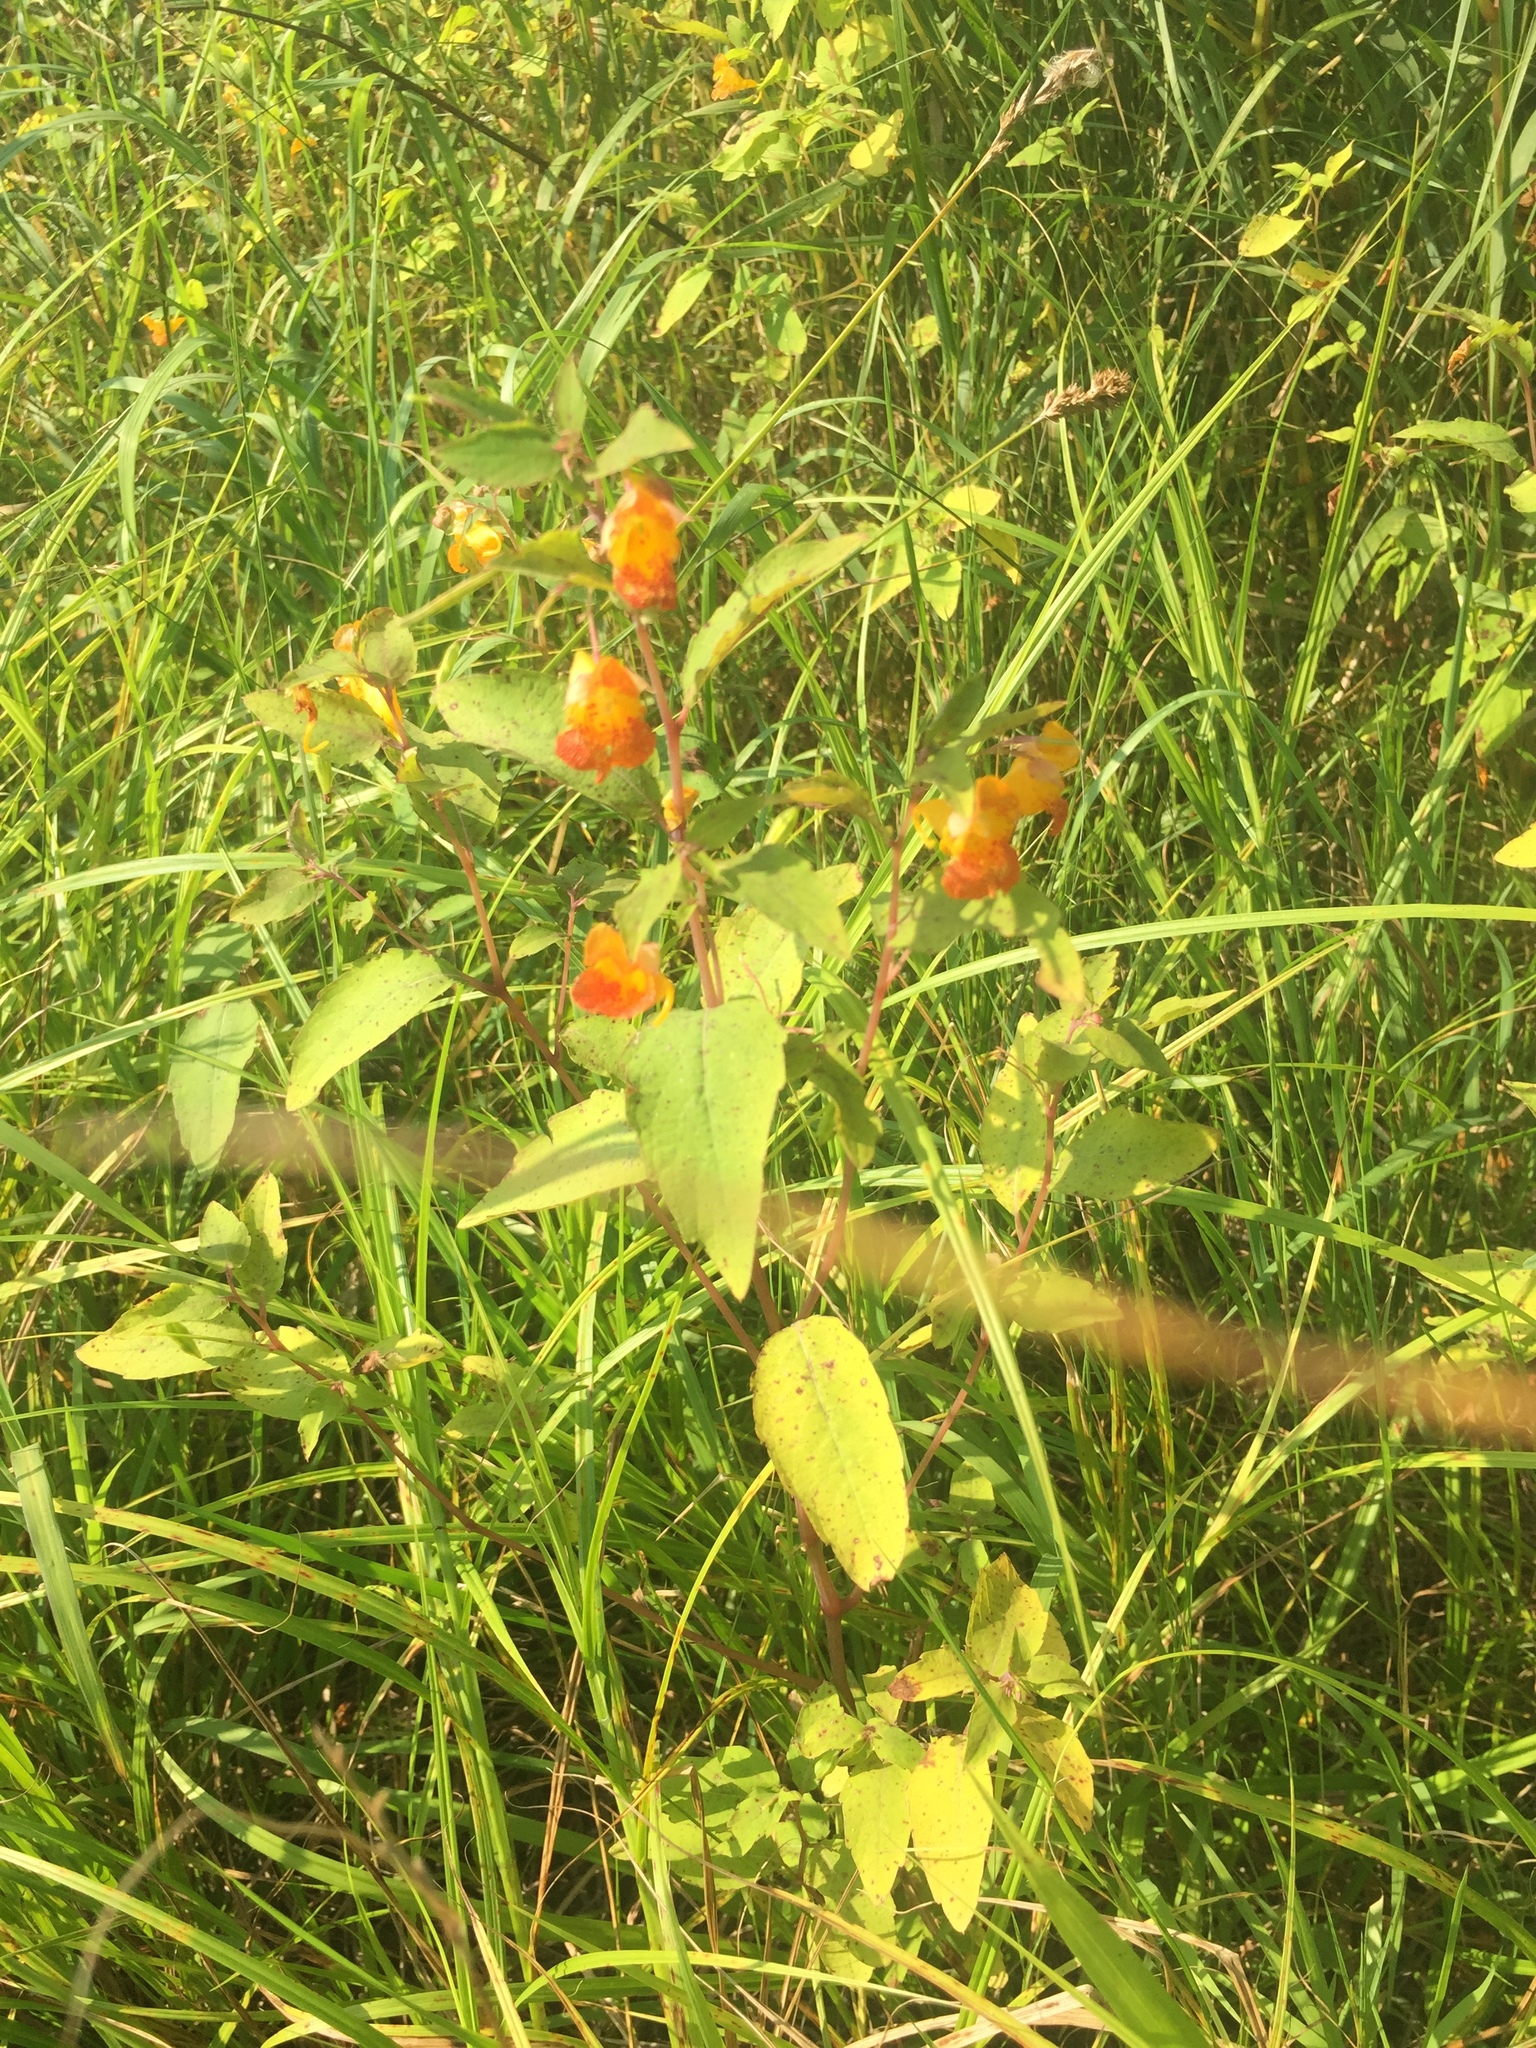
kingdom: Plantae
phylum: Tracheophyta
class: Magnoliopsida
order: Ericales
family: Balsaminaceae
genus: Impatiens
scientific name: Impatiens capensis
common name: Orange balsam
